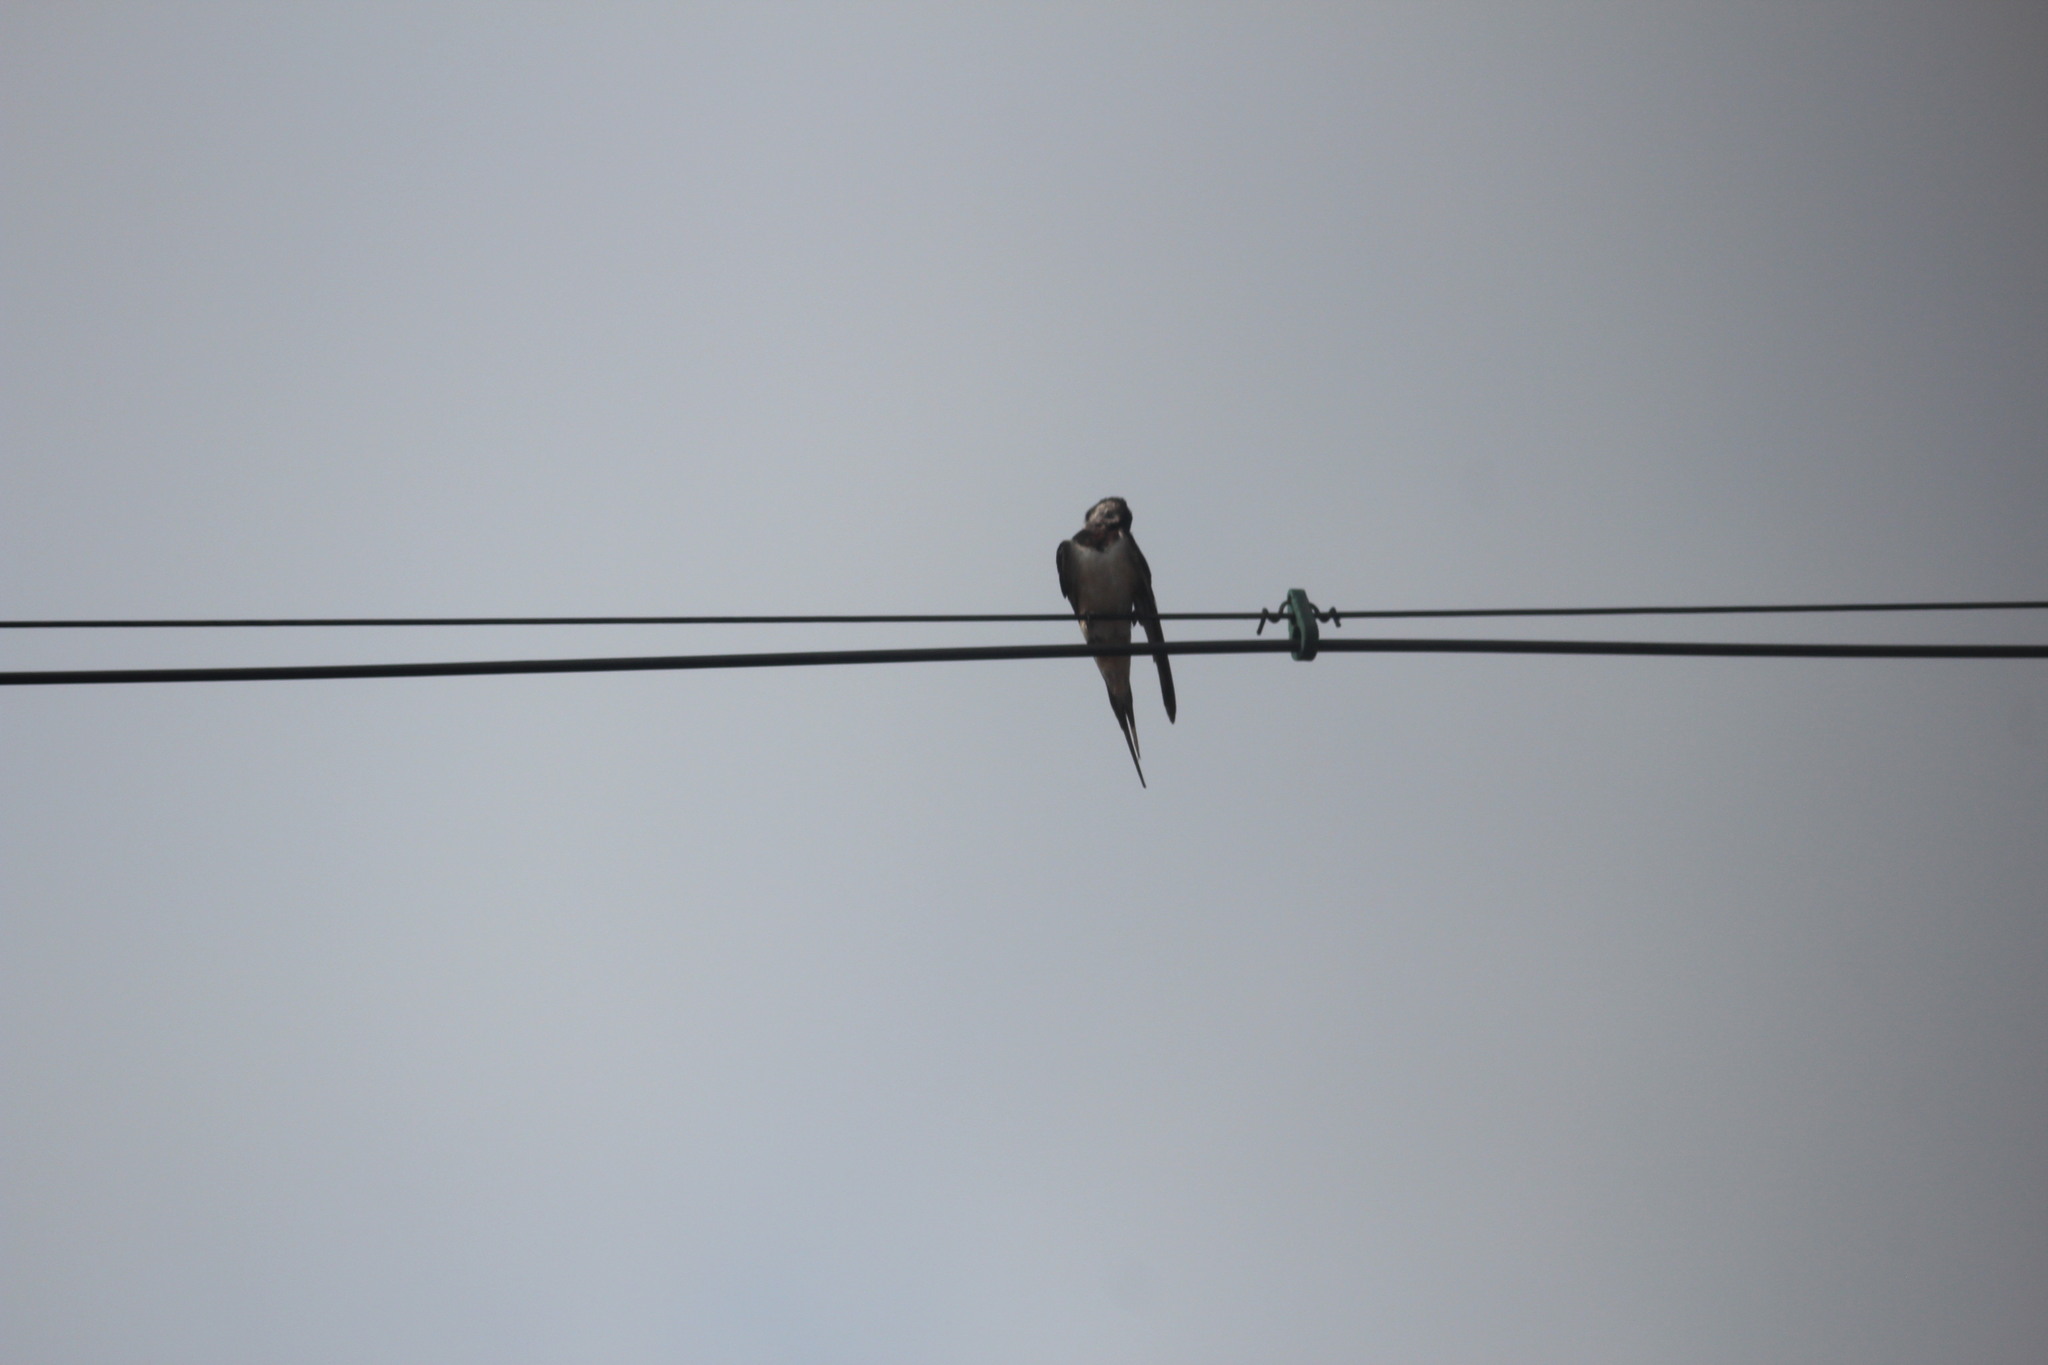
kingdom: Animalia
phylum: Chordata
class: Aves
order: Passeriformes
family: Hirundinidae
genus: Hirundo
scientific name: Hirundo rustica
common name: Barn swallow
